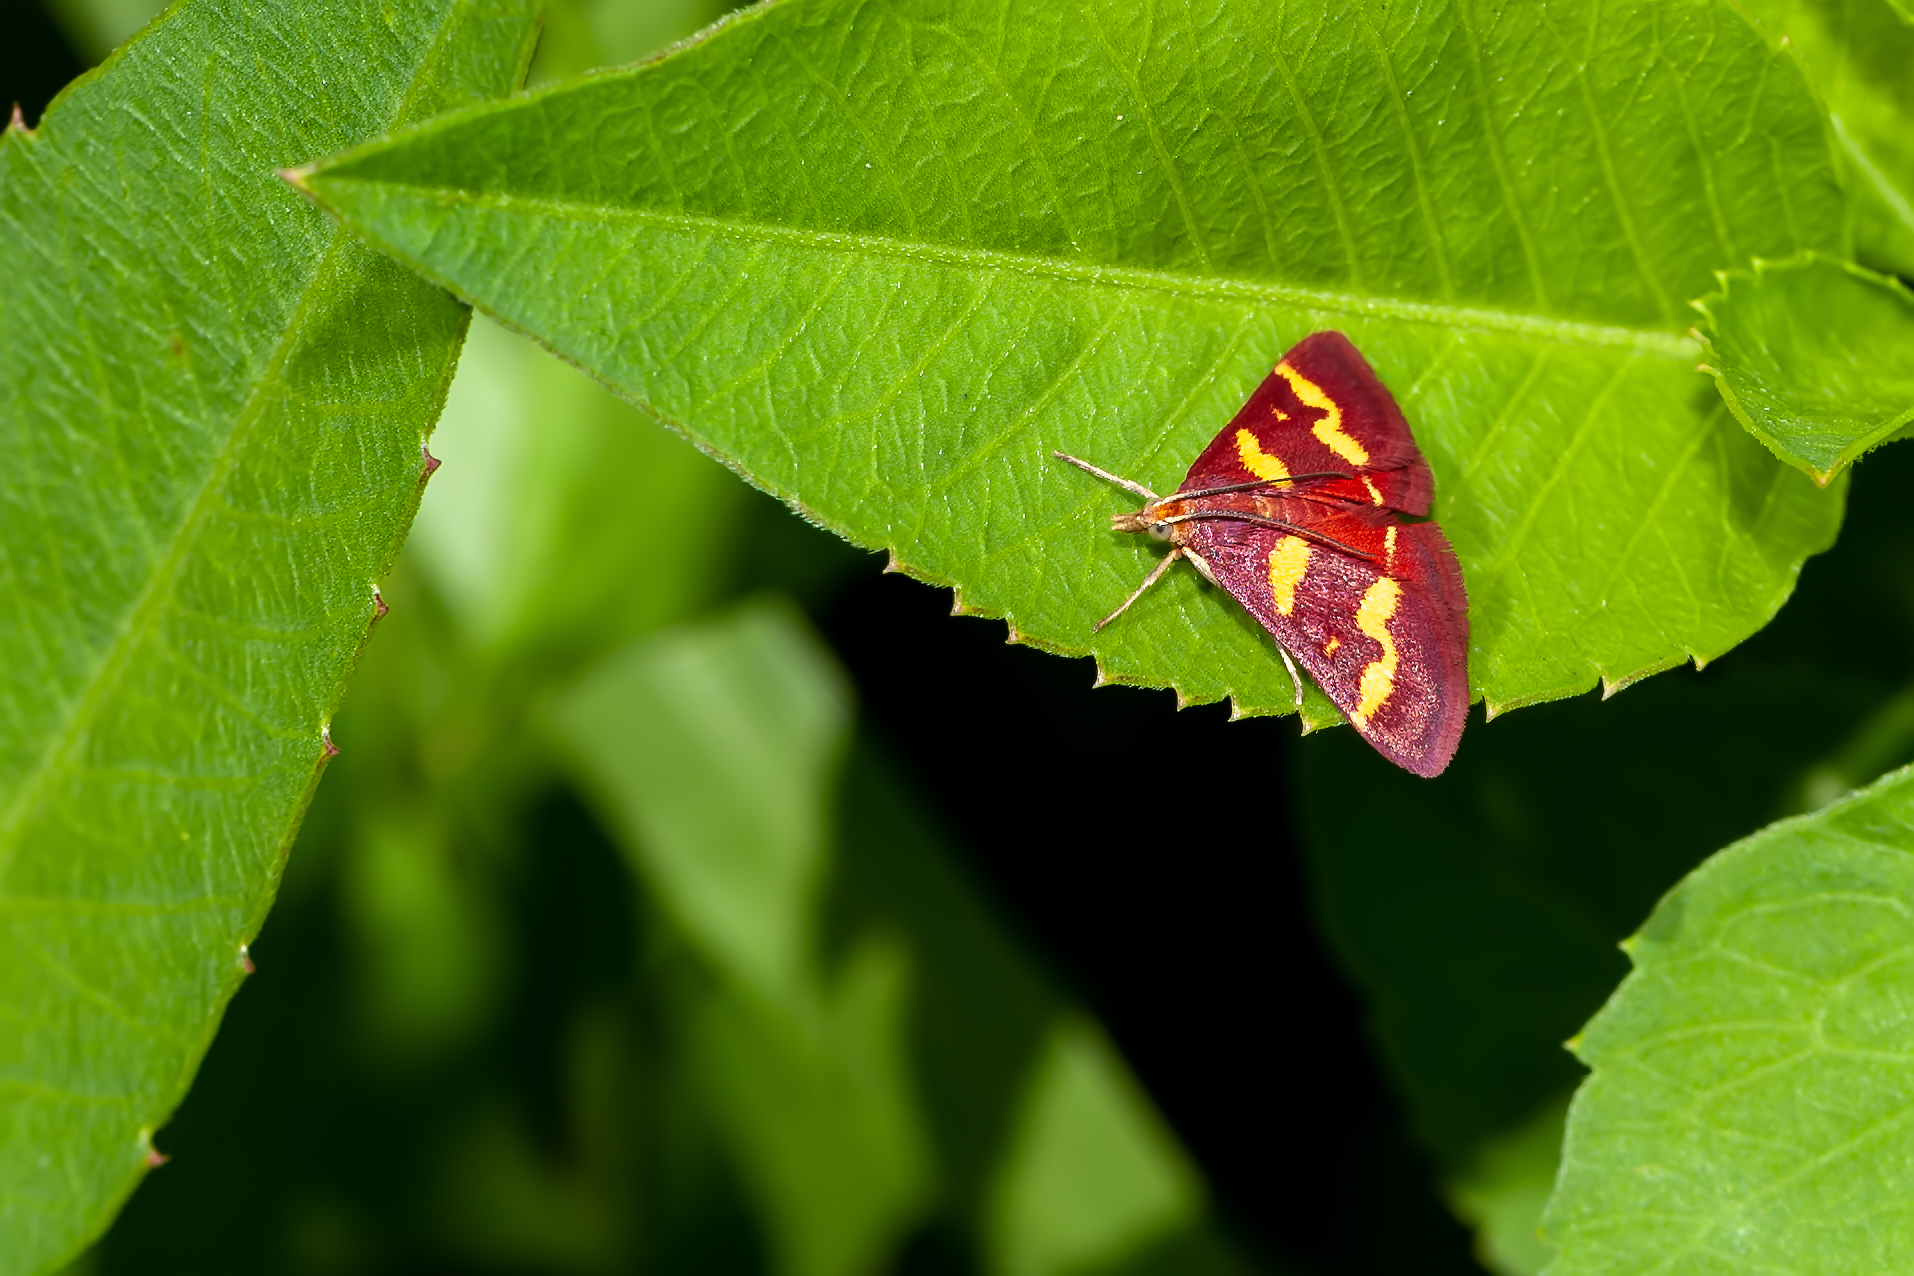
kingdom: Animalia
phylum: Arthropoda
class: Insecta
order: Lepidoptera
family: Crambidae
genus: Pyrausta
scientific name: Pyrausta tyralis
